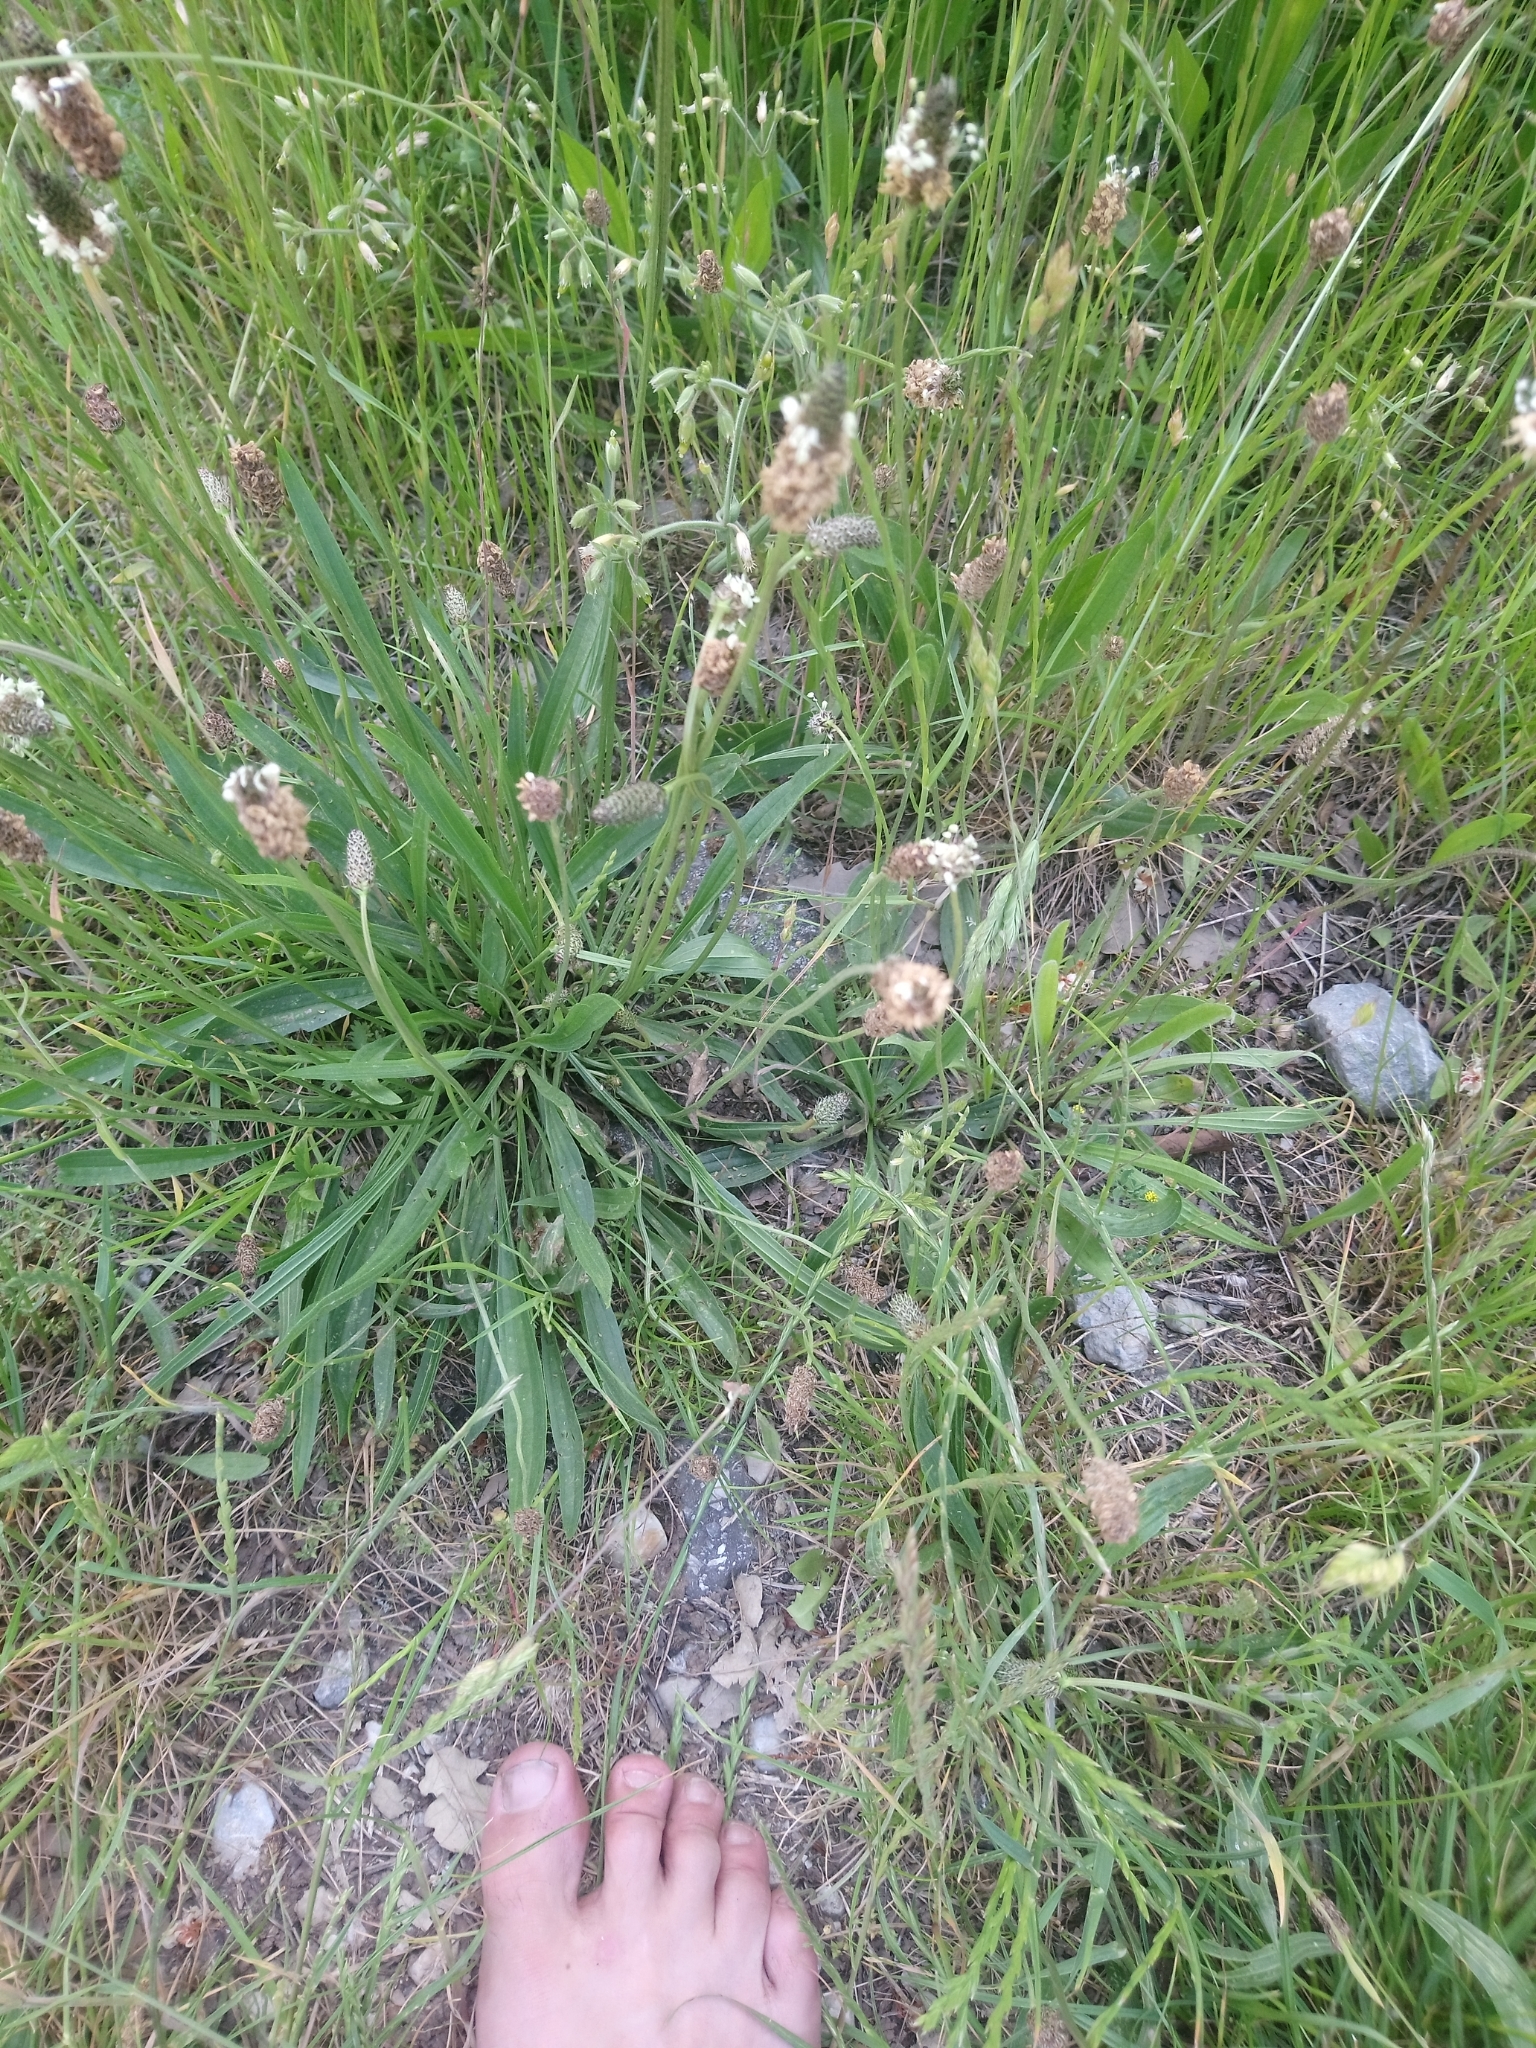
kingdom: Plantae
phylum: Tracheophyta
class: Magnoliopsida
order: Lamiales
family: Plantaginaceae
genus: Plantago
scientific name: Plantago lanceolata
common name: Ribwort plantain
